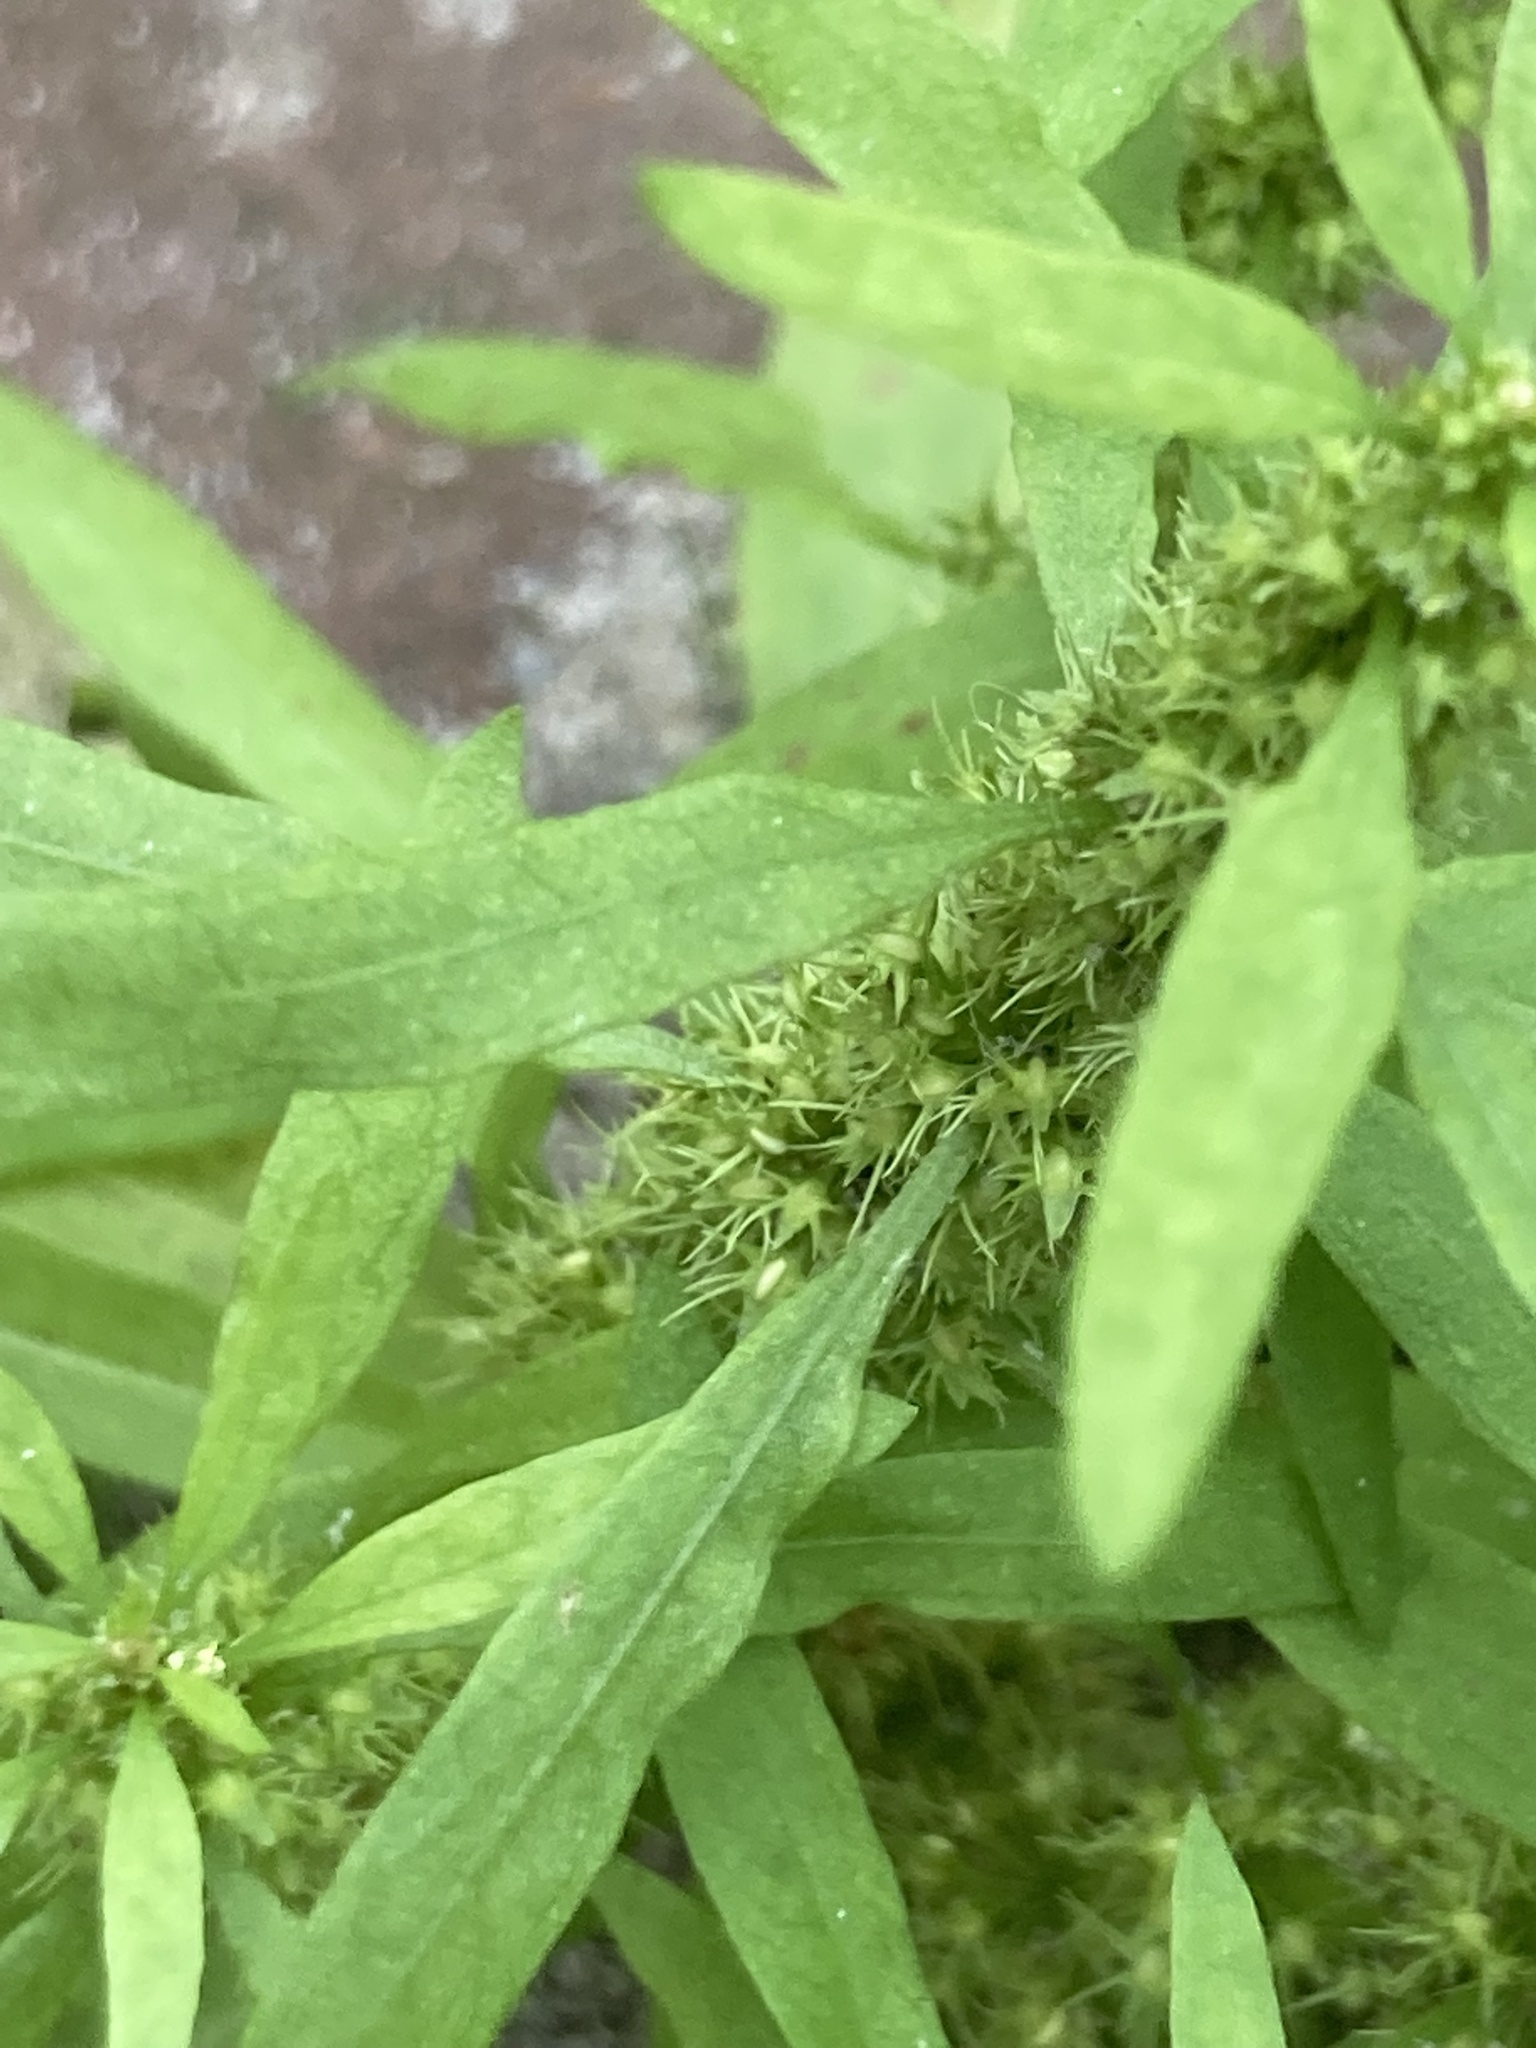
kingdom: Plantae
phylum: Tracheophyta
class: Magnoliopsida
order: Caryophyllales
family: Polygonaceae
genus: Rumex
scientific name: Rumex maritimus
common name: Golden dock
